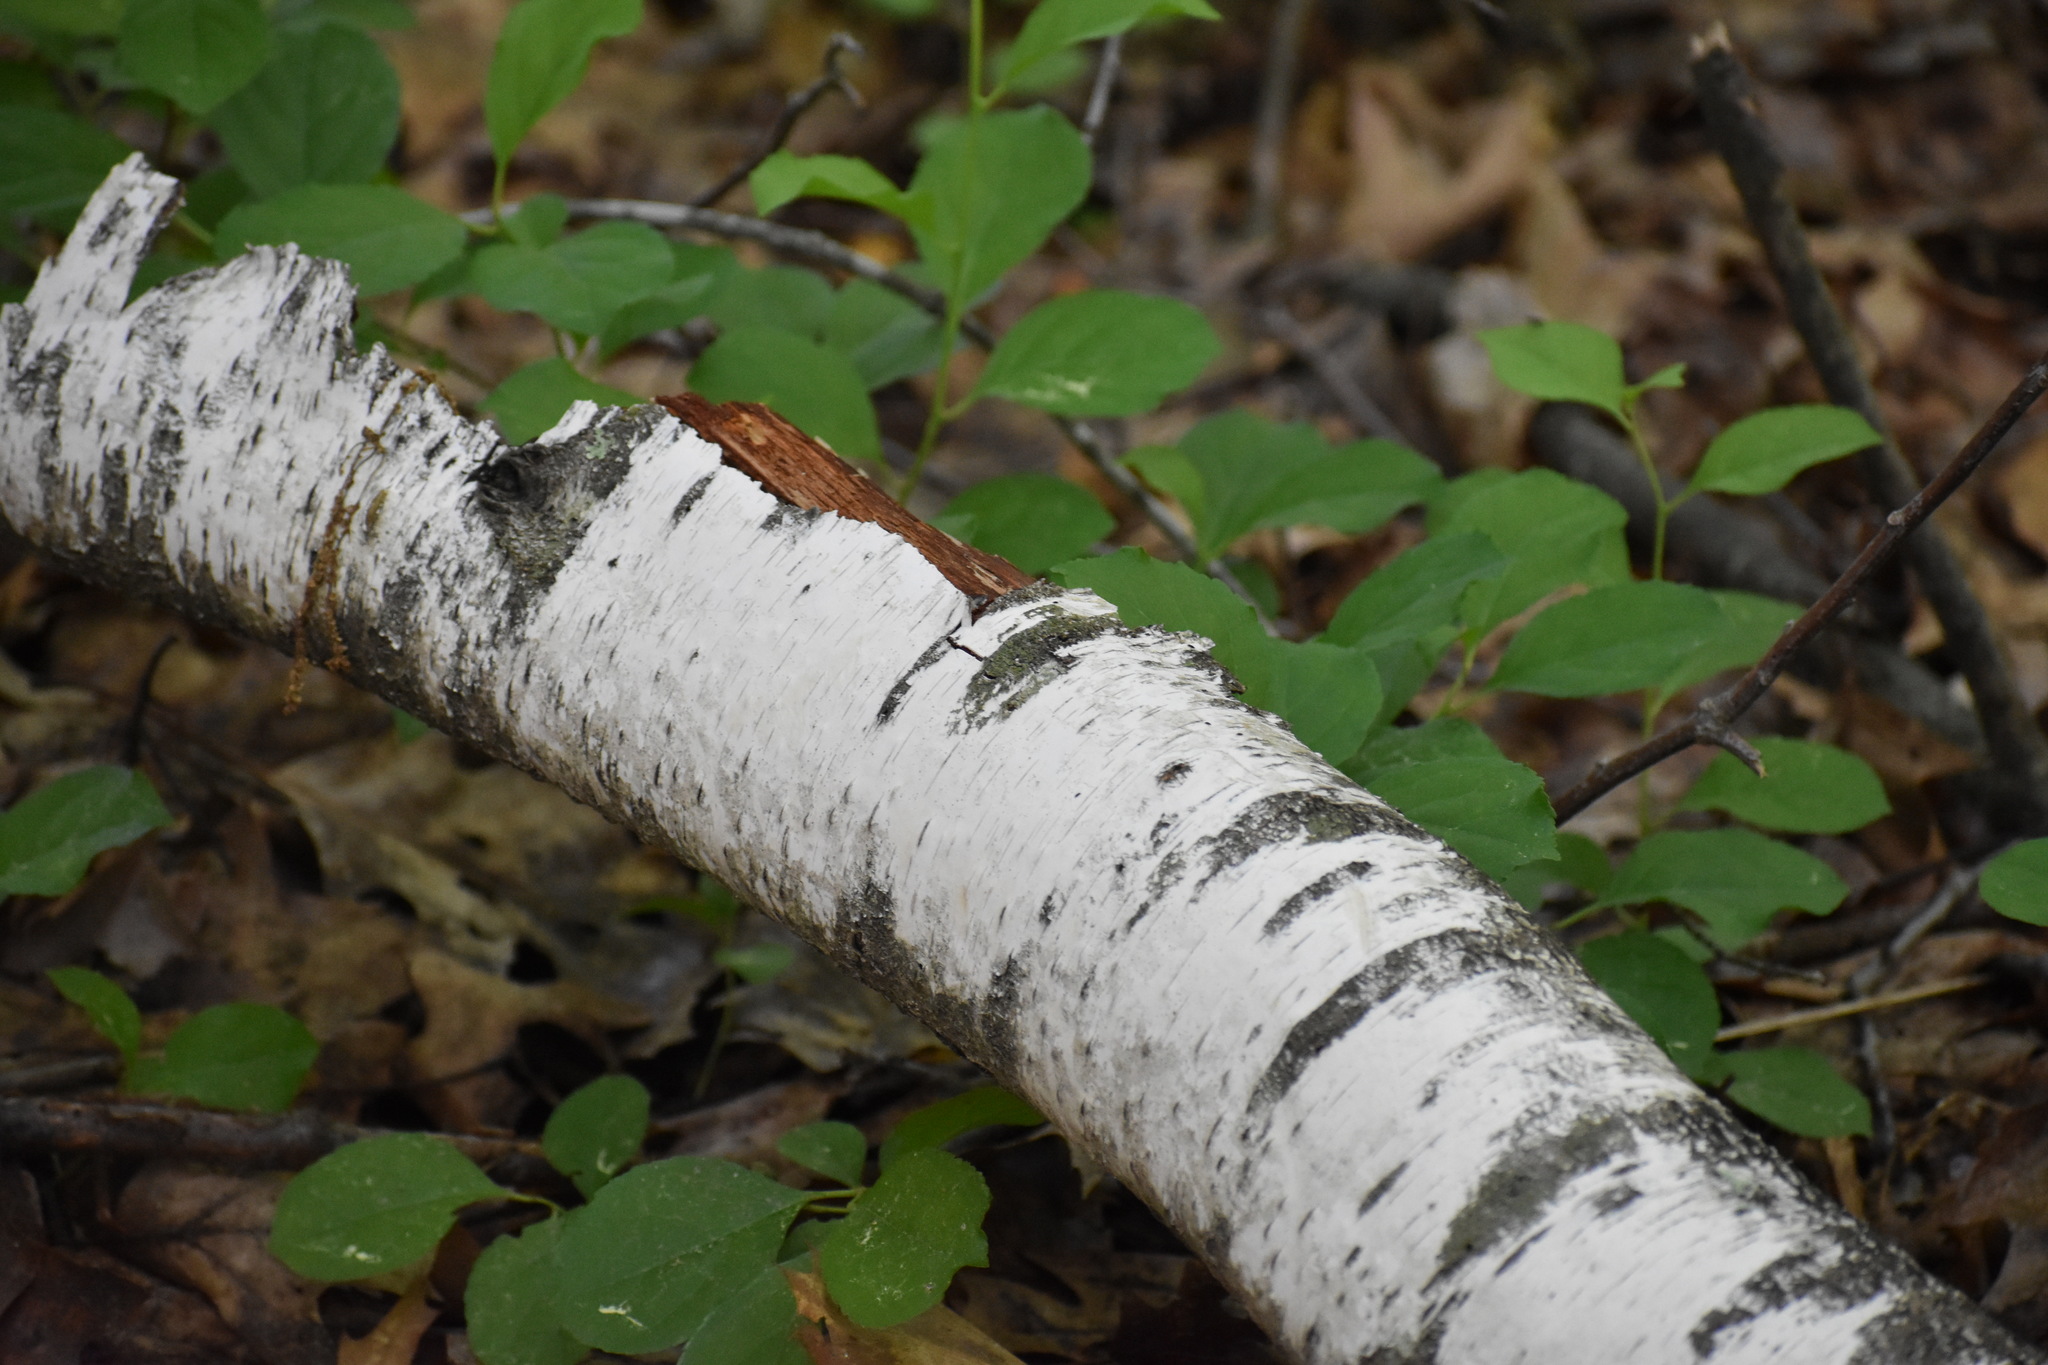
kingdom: Plantae
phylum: Tracheophyta
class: Magnoliopsida
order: Fagales
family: Betulaceae
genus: Betula
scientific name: Betula papyrifera
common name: Paper birch
